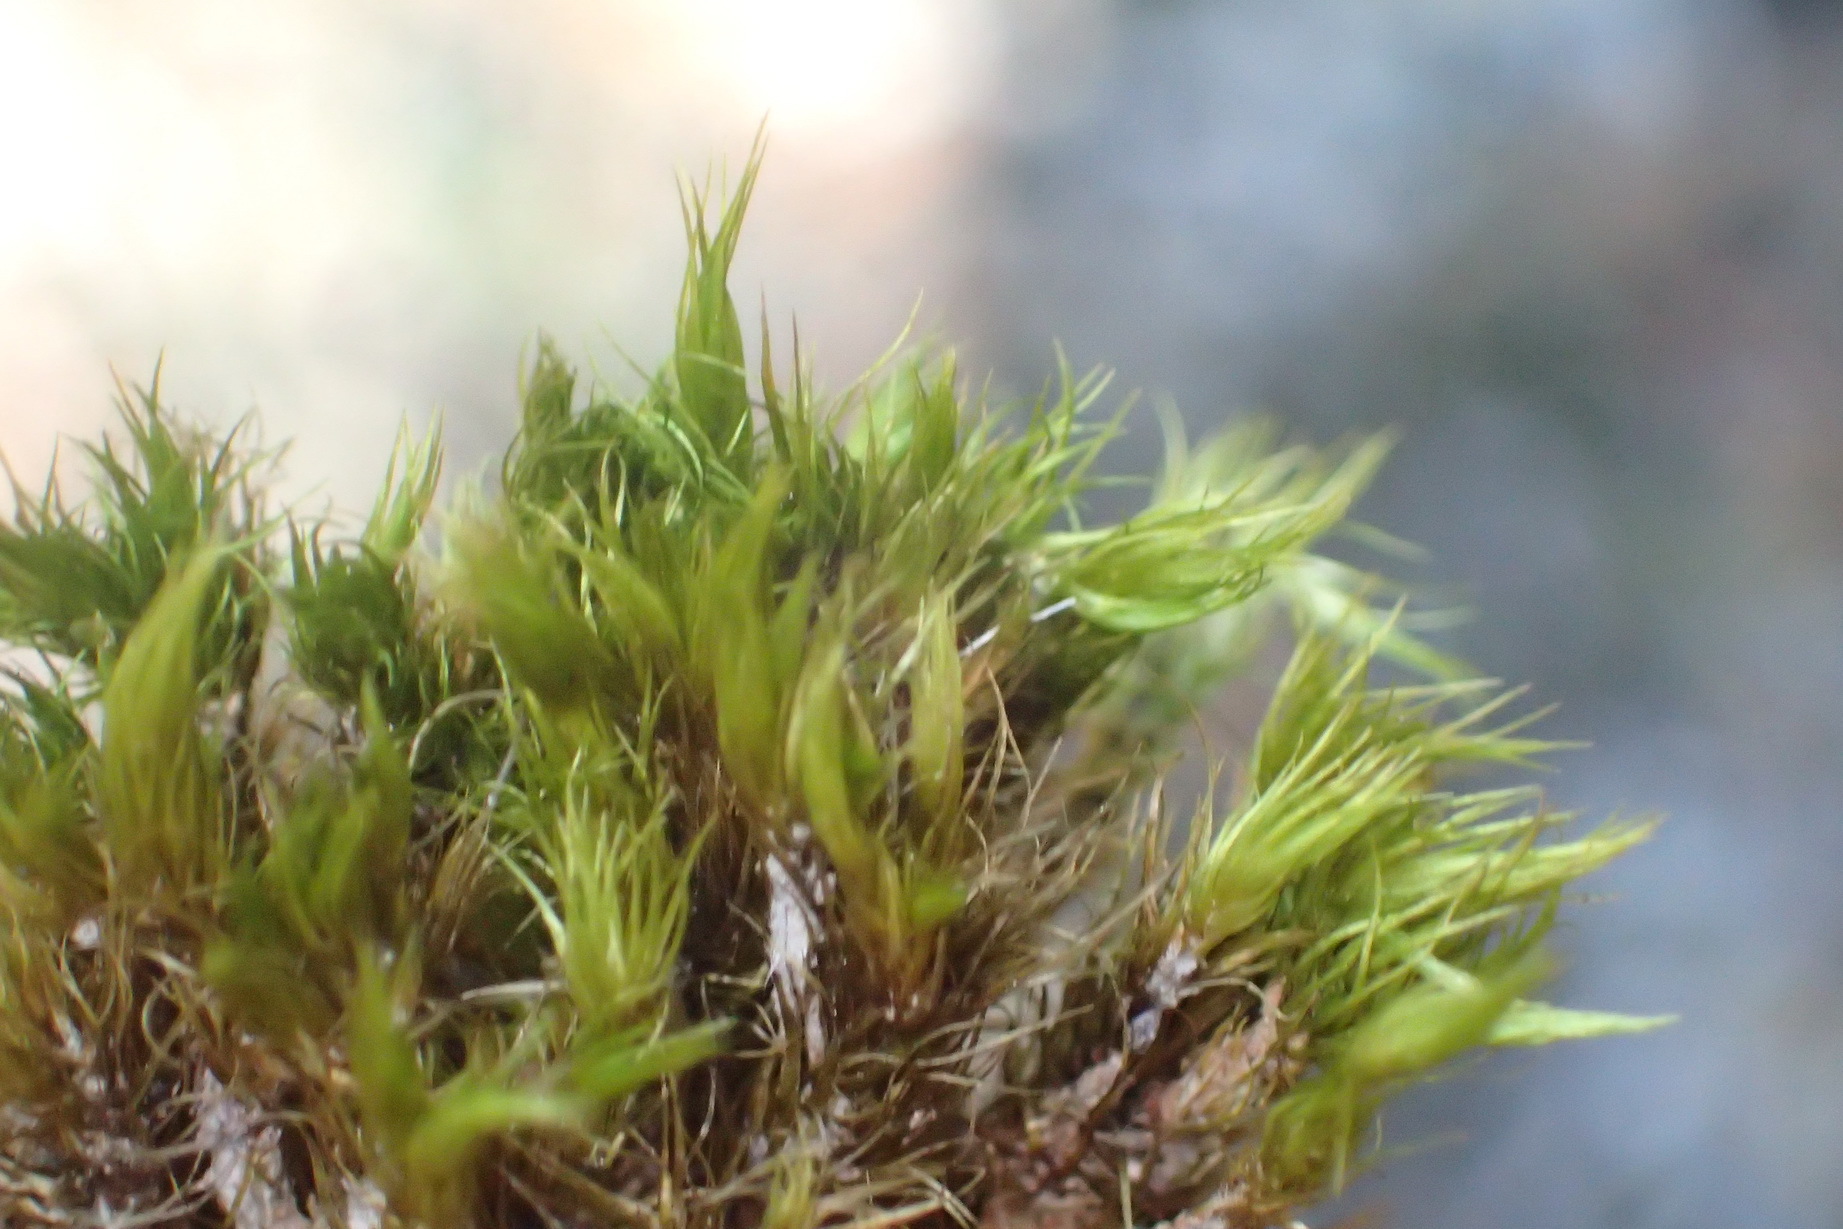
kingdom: Plantae
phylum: Bryophyta
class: Bryopsida
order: Dicranales
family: Leucobryaceae
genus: Campylopus
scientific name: Campylopus thwaitesii
